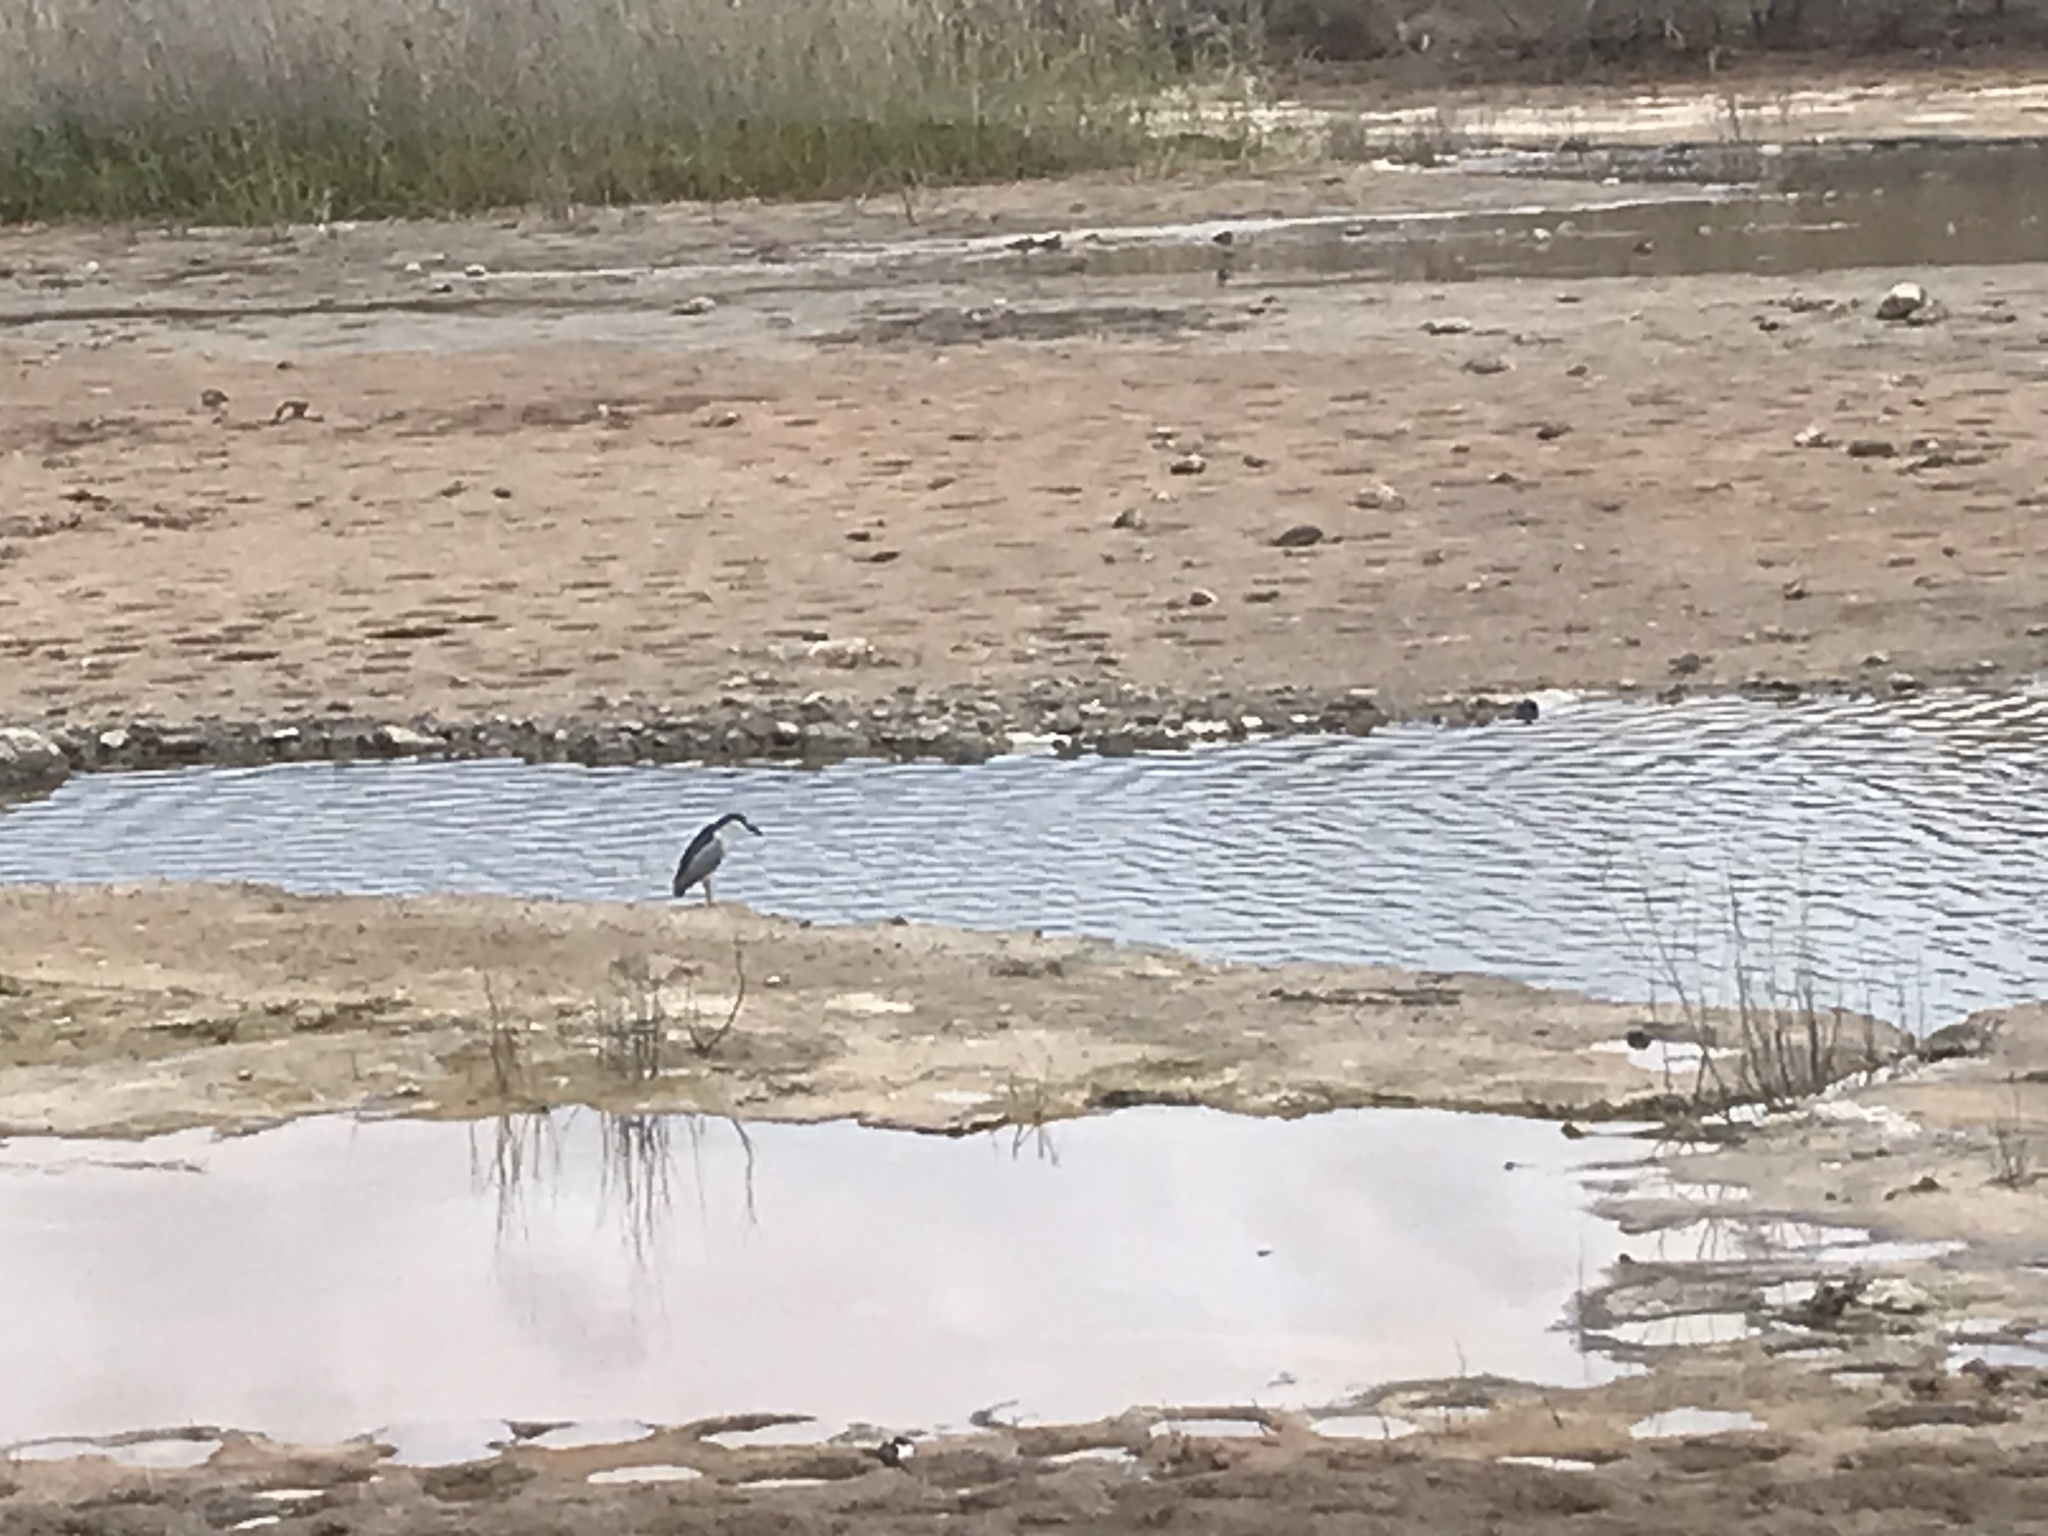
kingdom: Animalia
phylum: Chordata
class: Aves
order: Pelecaniformes
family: Ardeidae
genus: Nycticorax
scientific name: Nycticorax nycticorax
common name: Black-crowned night heron
